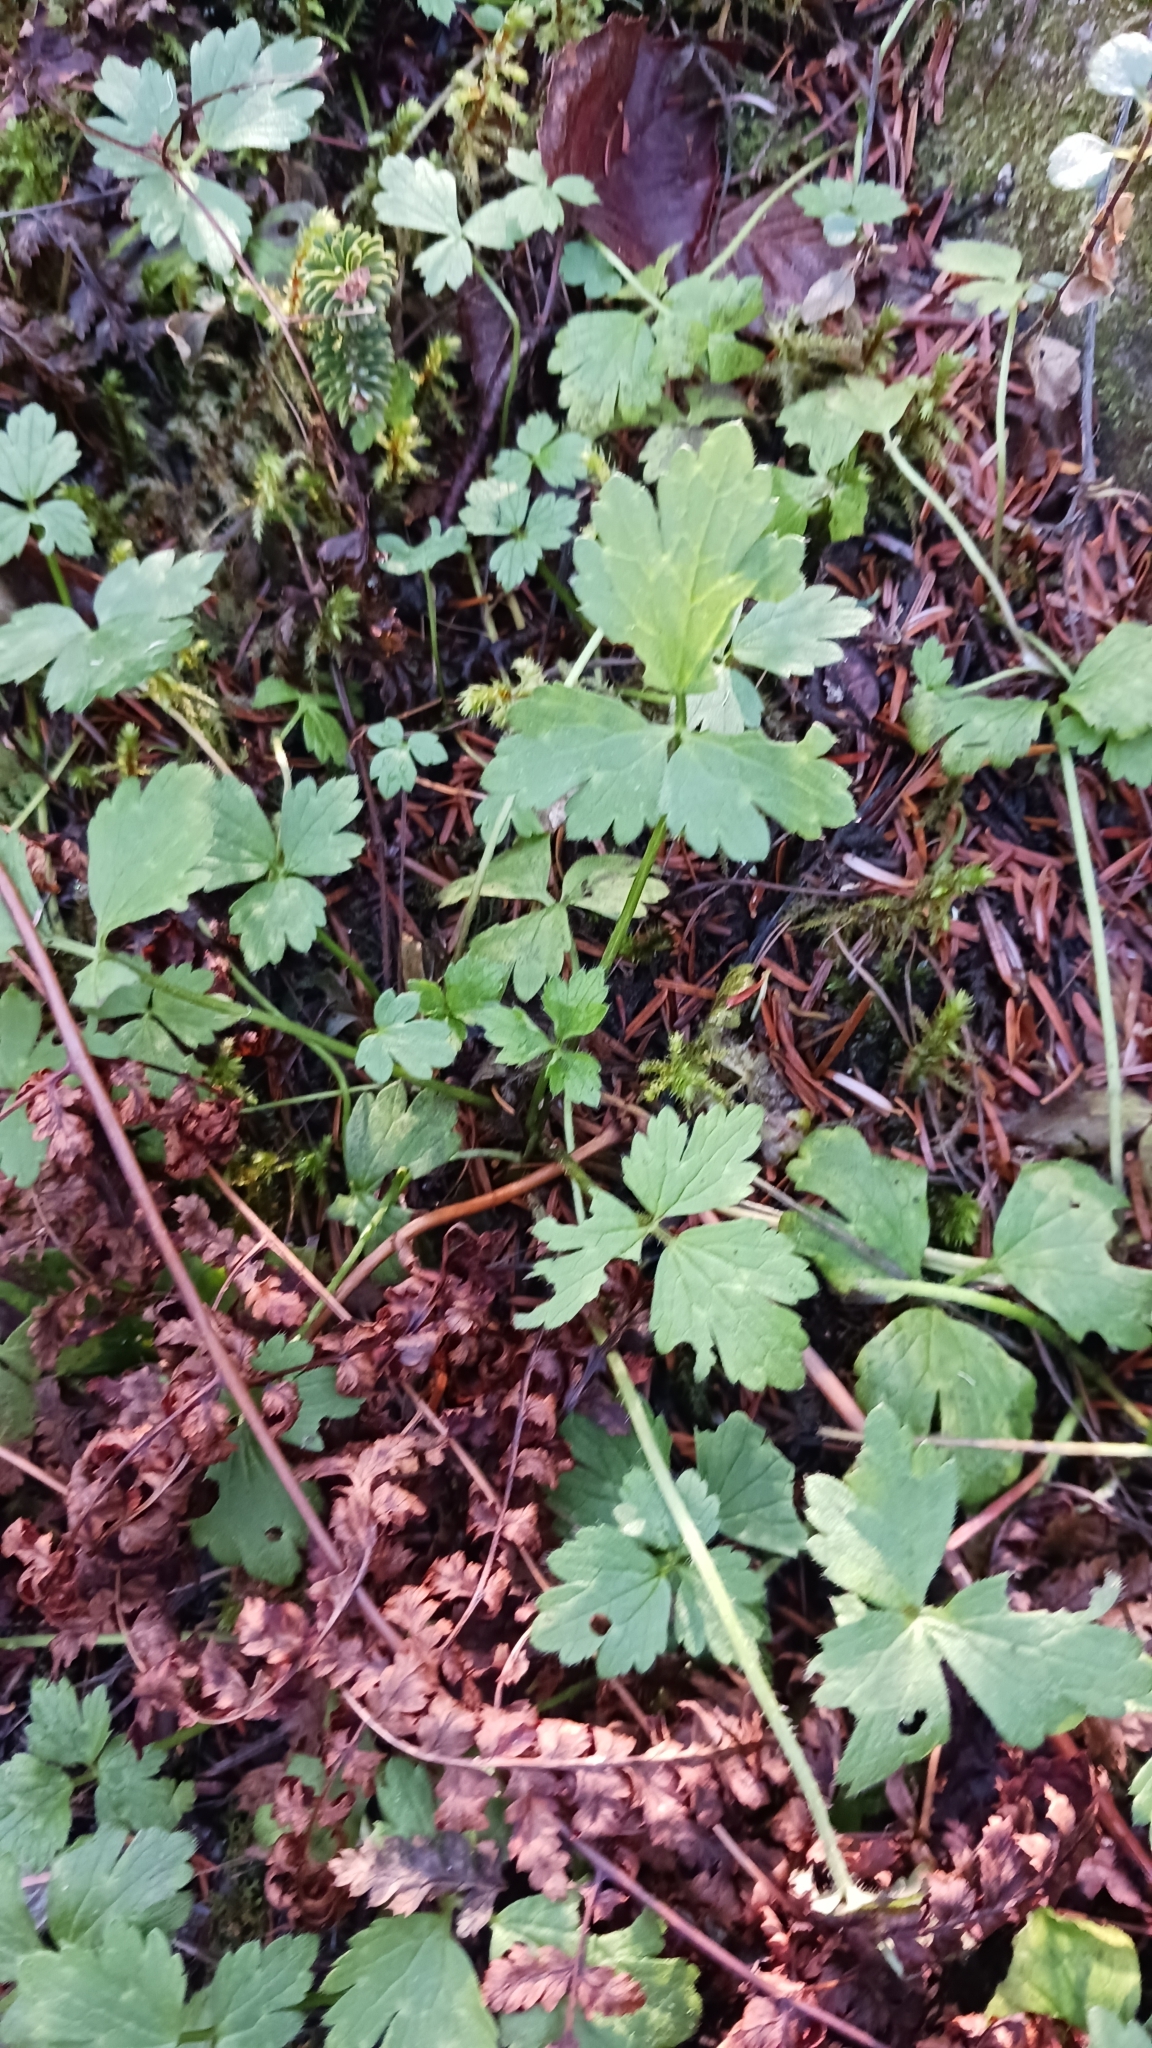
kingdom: Plantae
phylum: Tracheophyta
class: Magnoliopsida
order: Ranunculales
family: Ranunculaceae
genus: Ranunculus
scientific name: Ranunculus repens
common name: Creeping buttercup
